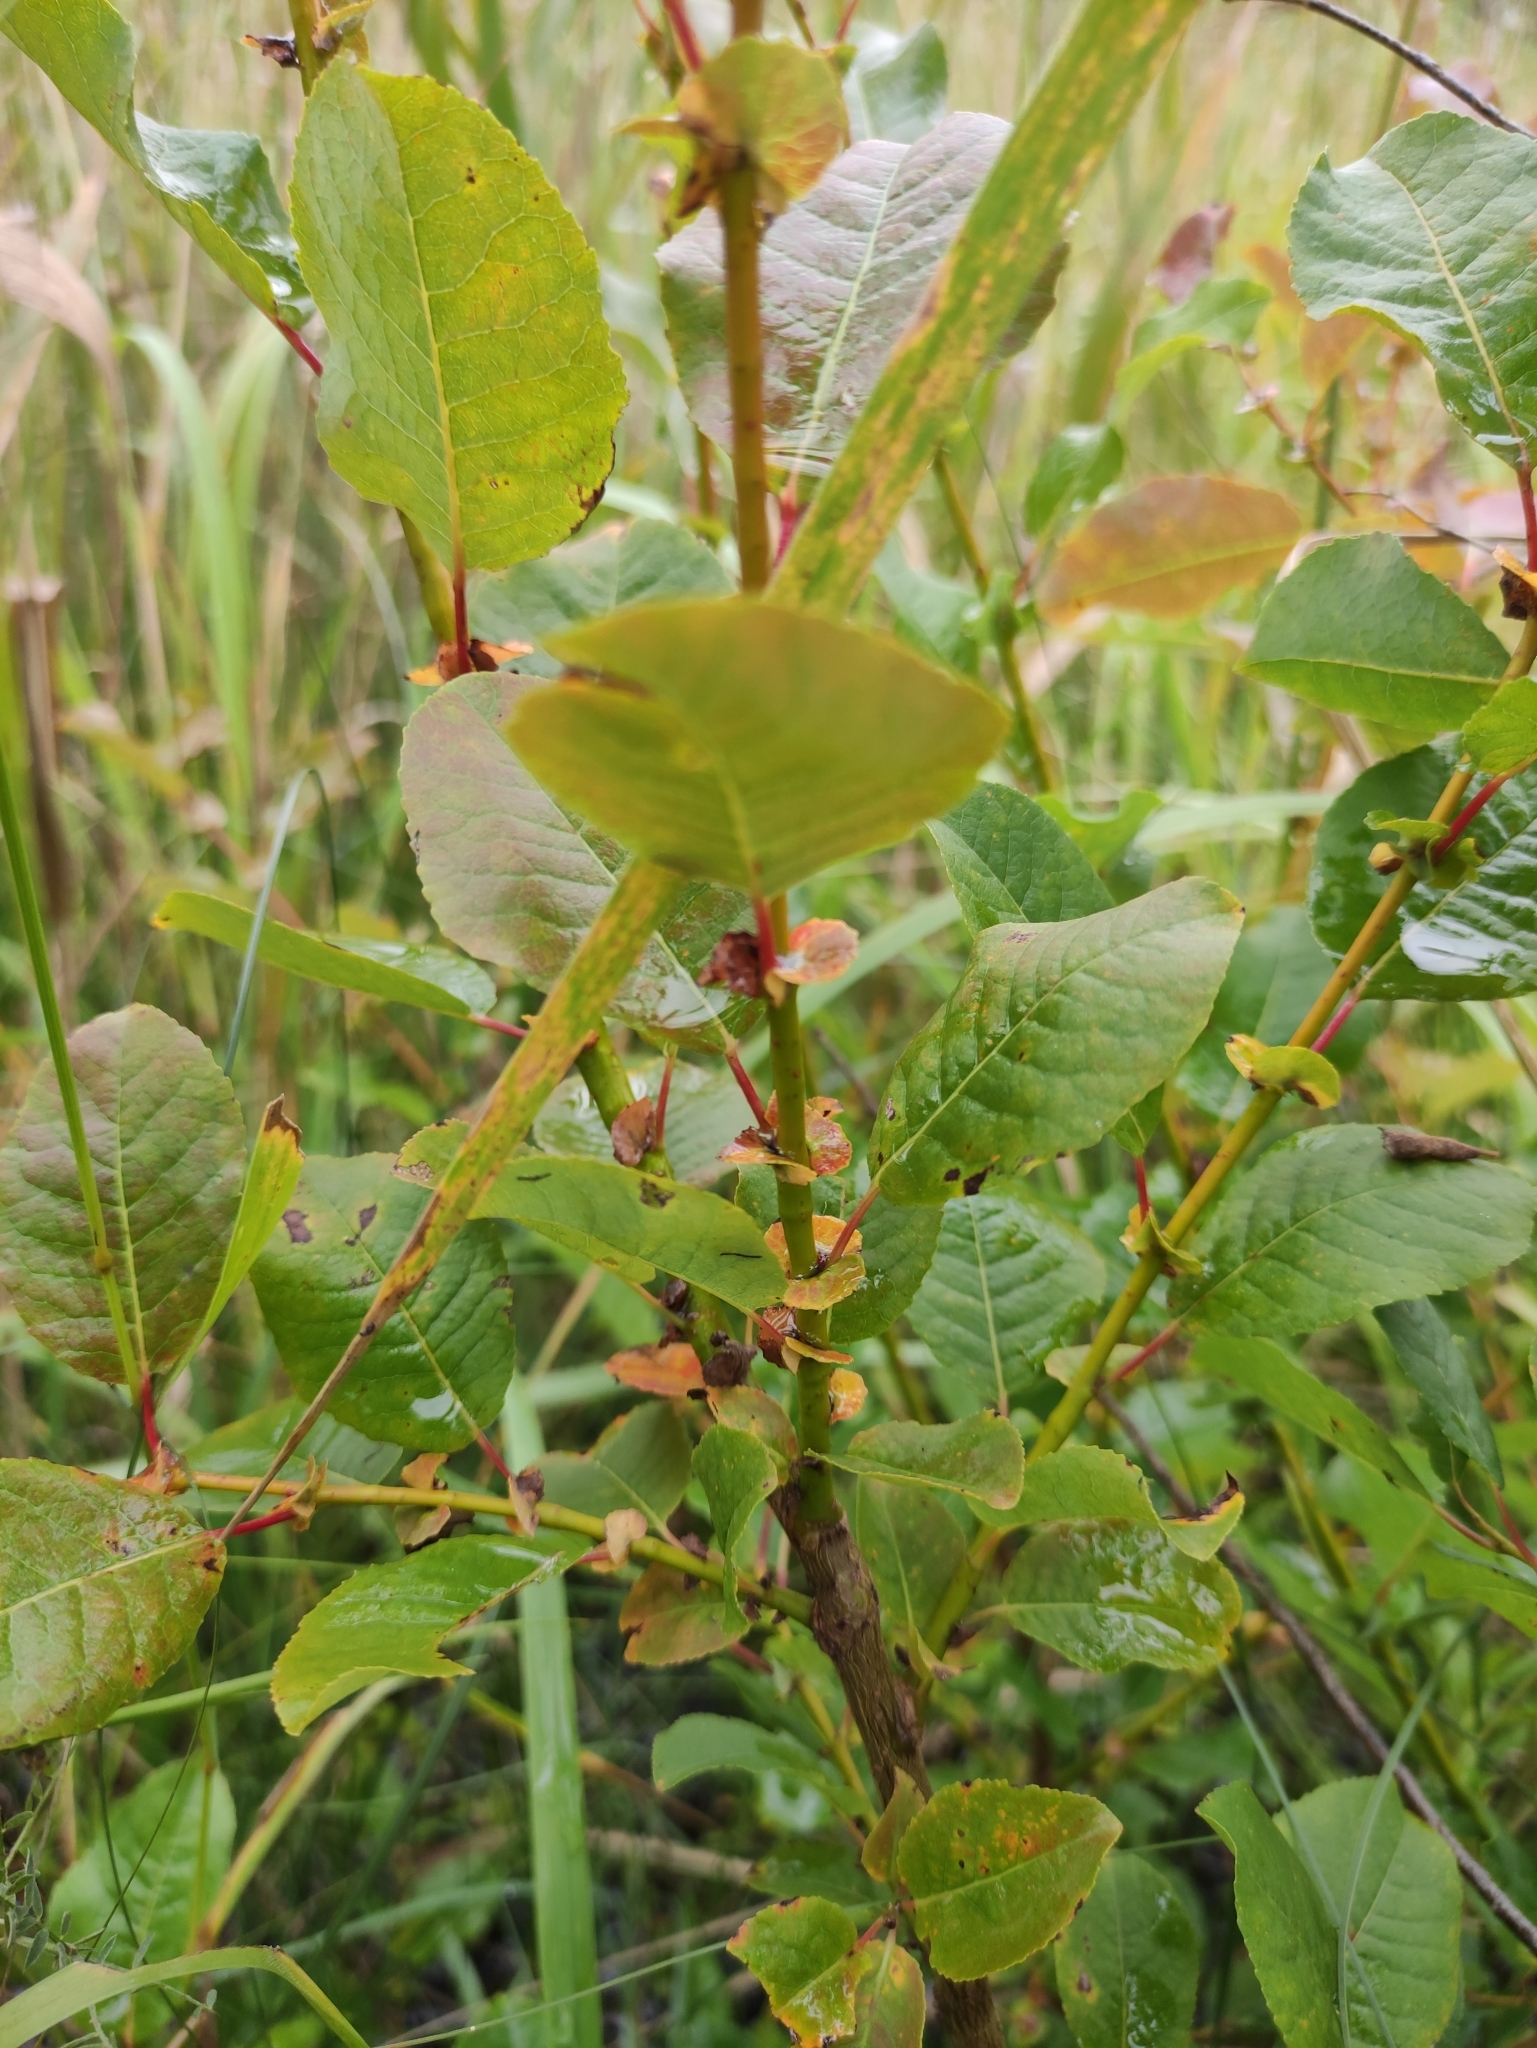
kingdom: Plantae
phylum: Tracheophyta
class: Magnoliopsida
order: Malpighiales
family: Salicaceae
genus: Salix
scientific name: Salix pyrolifolia
